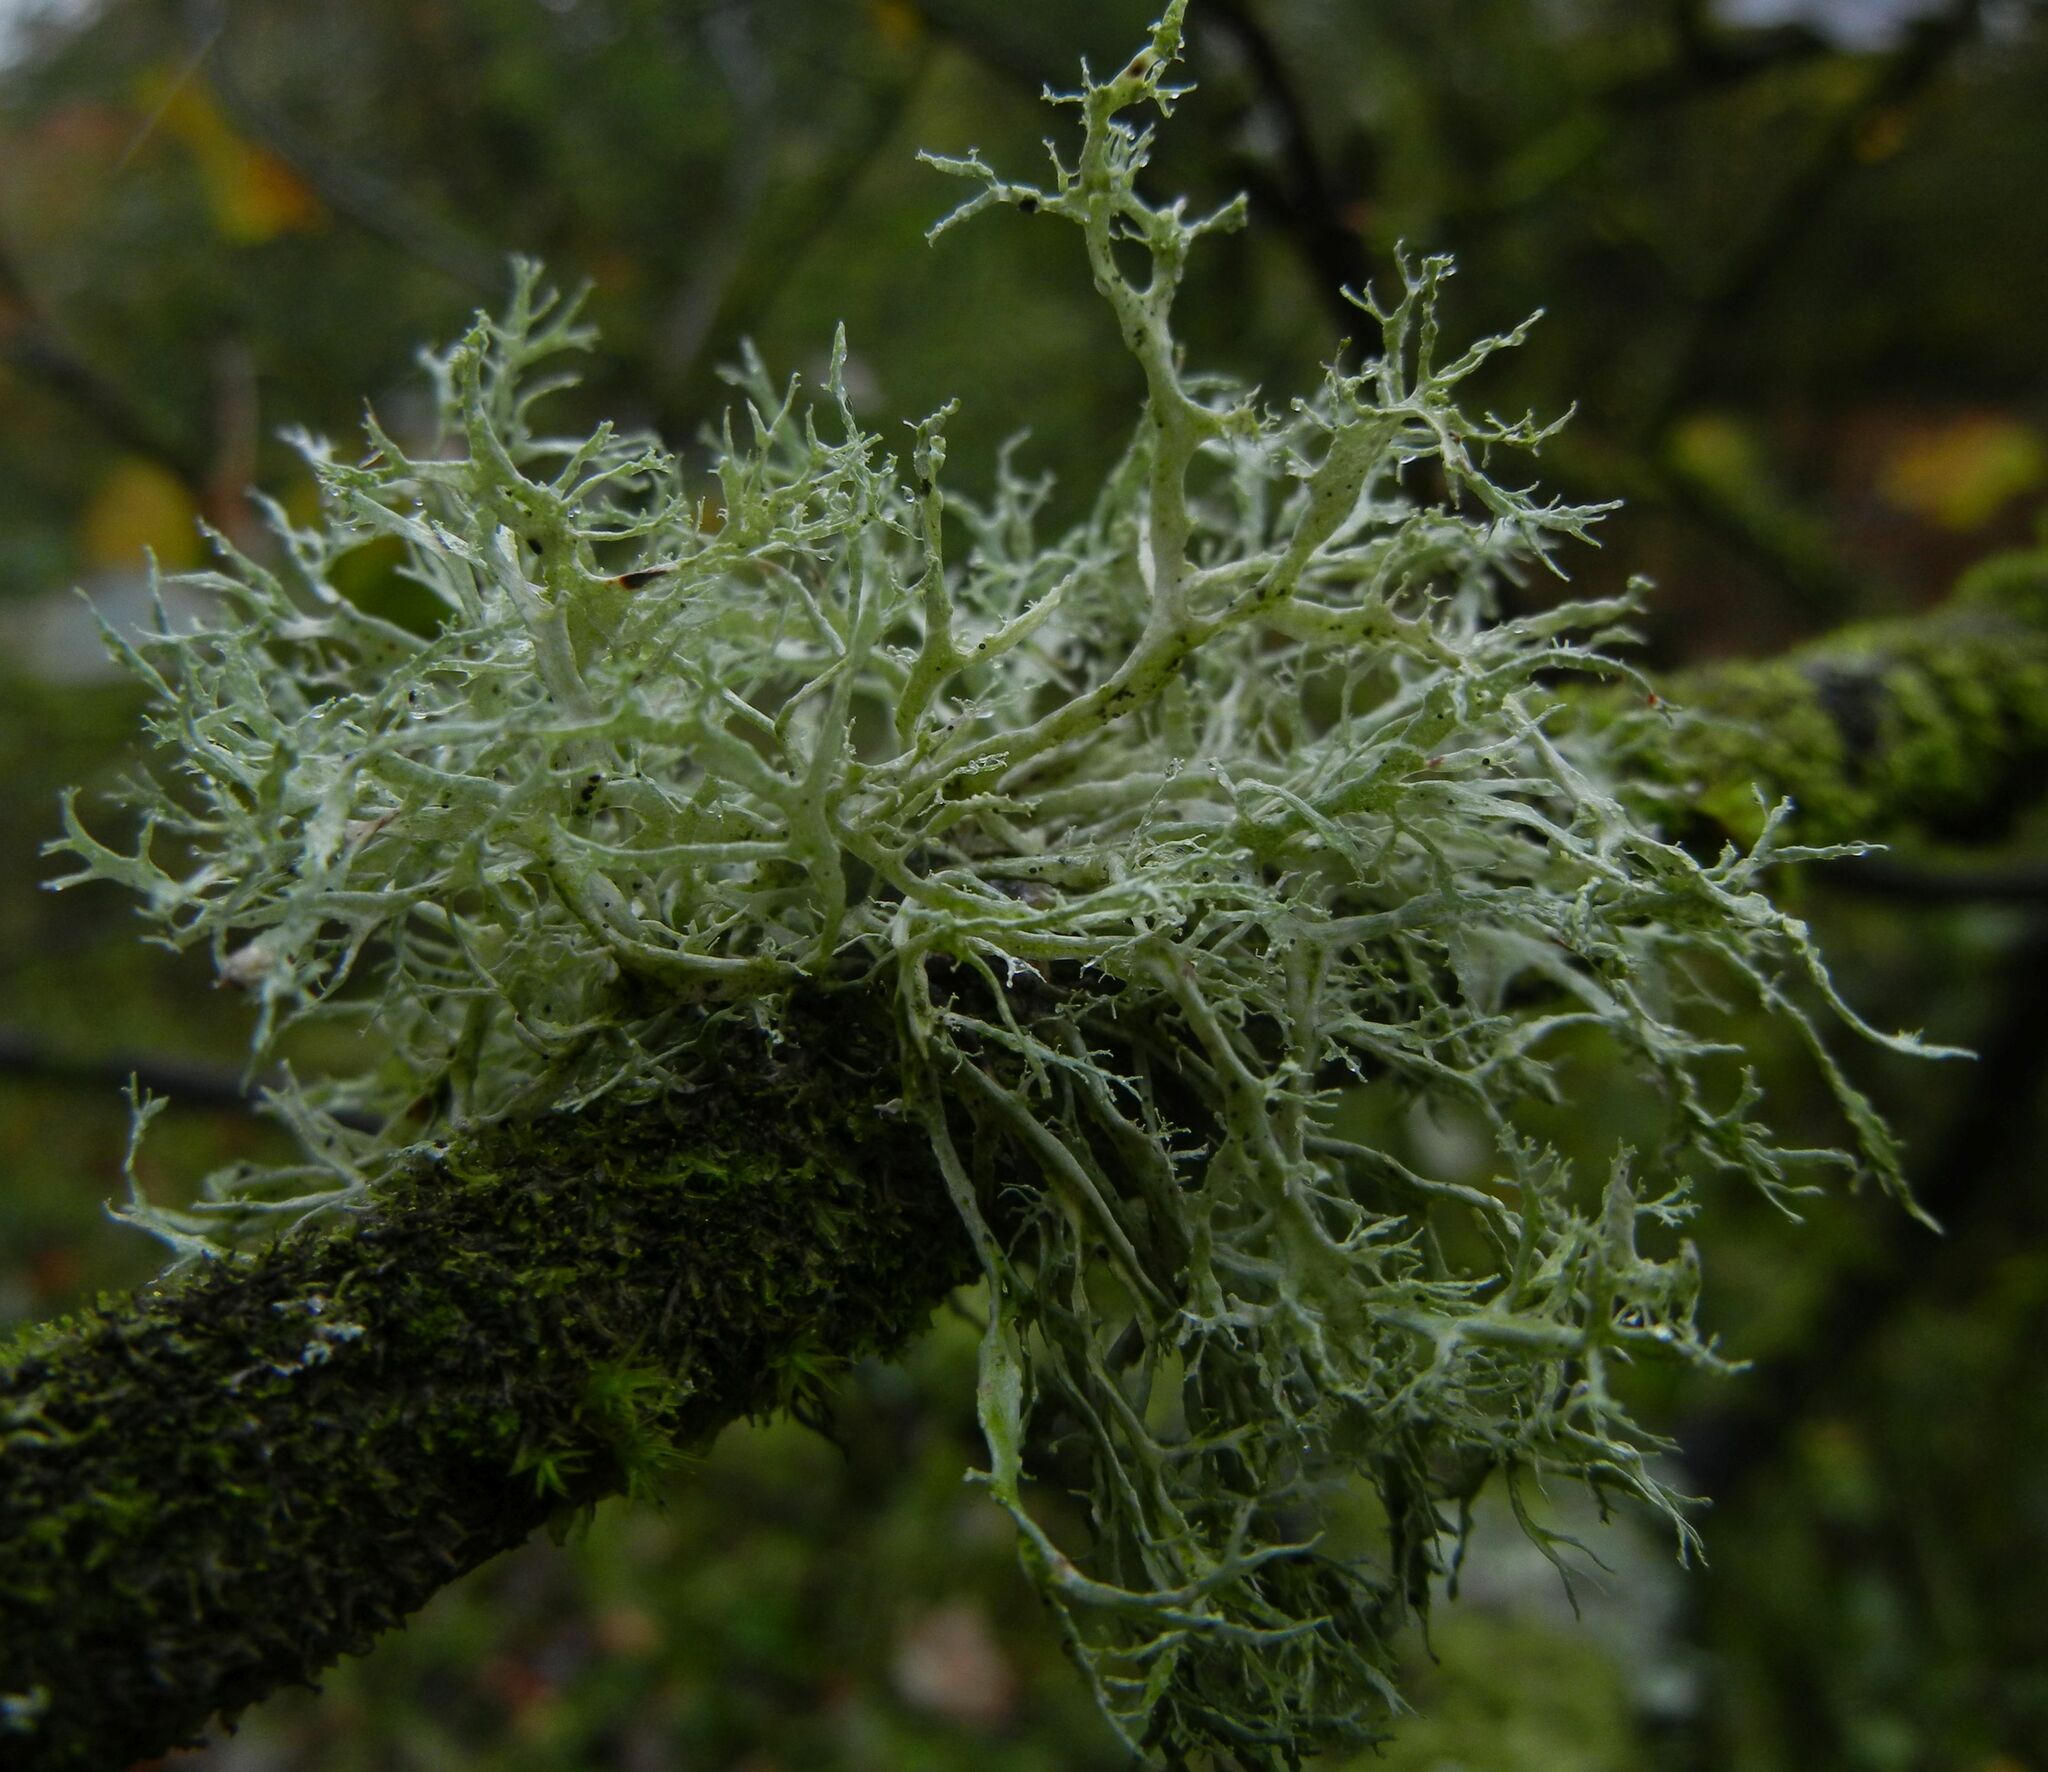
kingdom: Fungi
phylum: Ascomycota
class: Lecanoromycetes
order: Lecanorales
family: Ramalinaceae
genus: Ramalina
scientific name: Ramalina farinacea
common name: Farinose cartilage lichen
